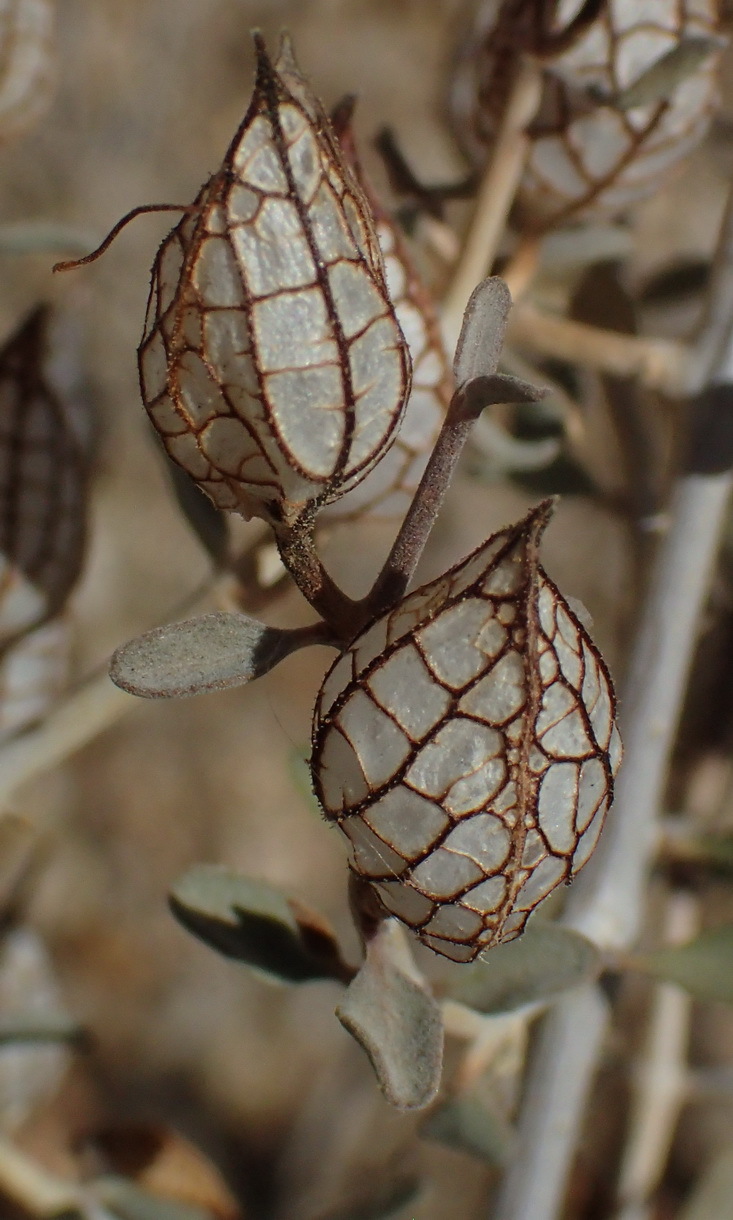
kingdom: Plantae
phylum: Tracheophyta
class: Magnoliopsida
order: Lamiales
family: Acanthaceae
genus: Petalidium
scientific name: Petalidium lucens
